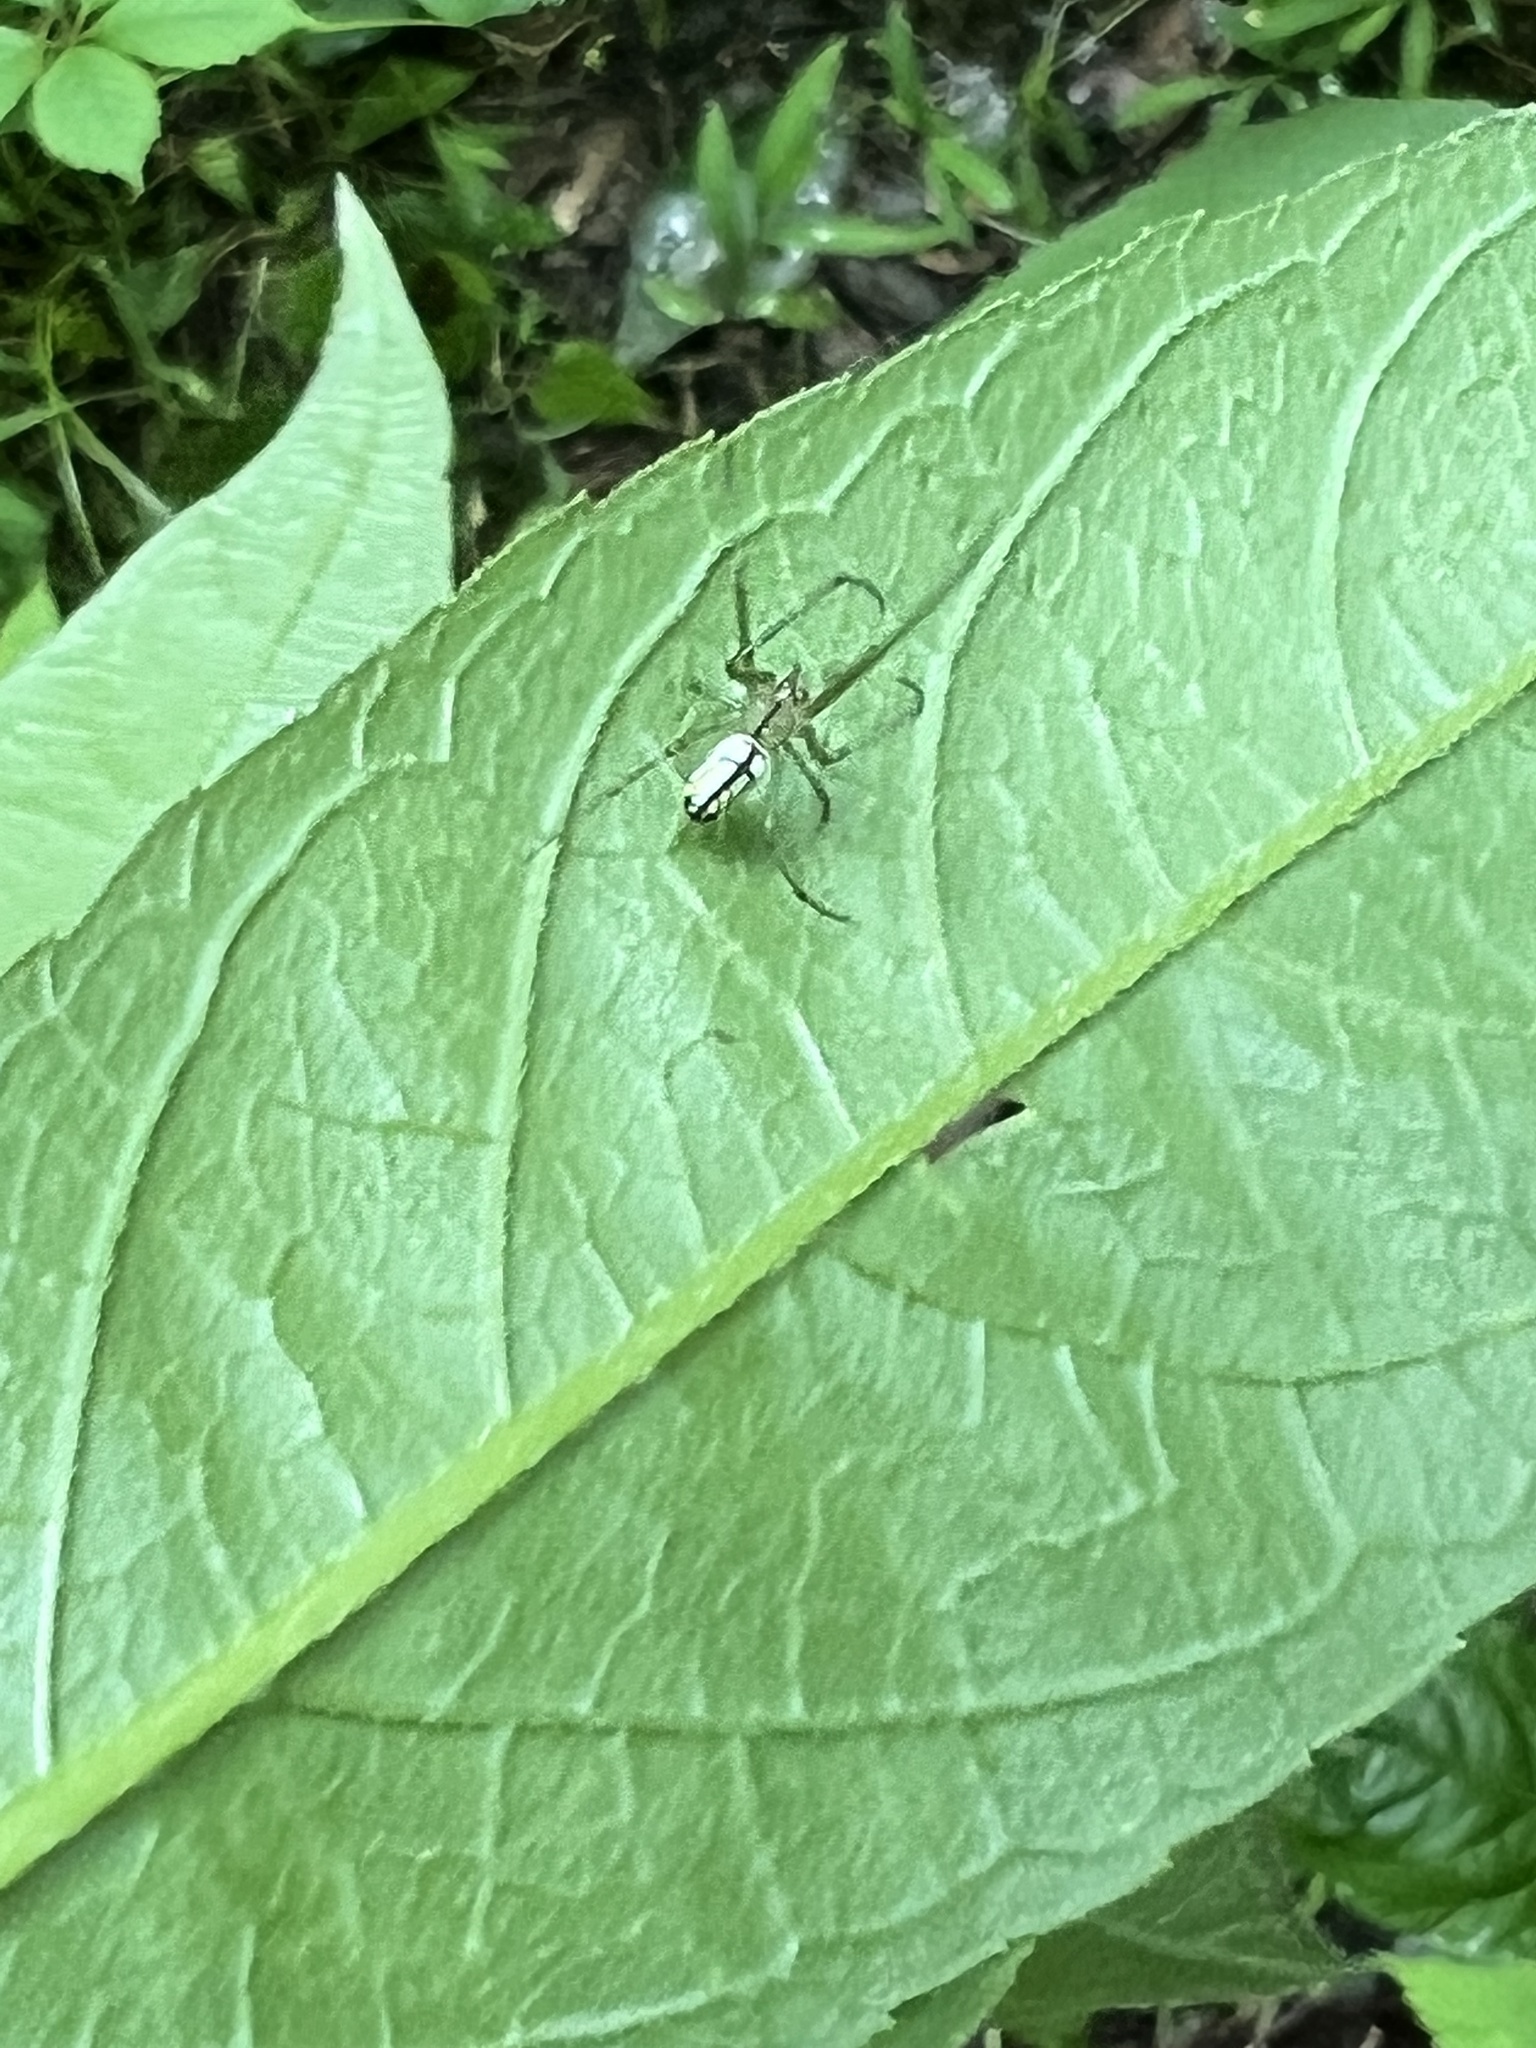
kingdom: Animalia
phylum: Arthropoda
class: Arachnida
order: Araneae
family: Tetragnathidae
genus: Leucauge
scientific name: Leucauge venusta
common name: Longjawed orb weavers
